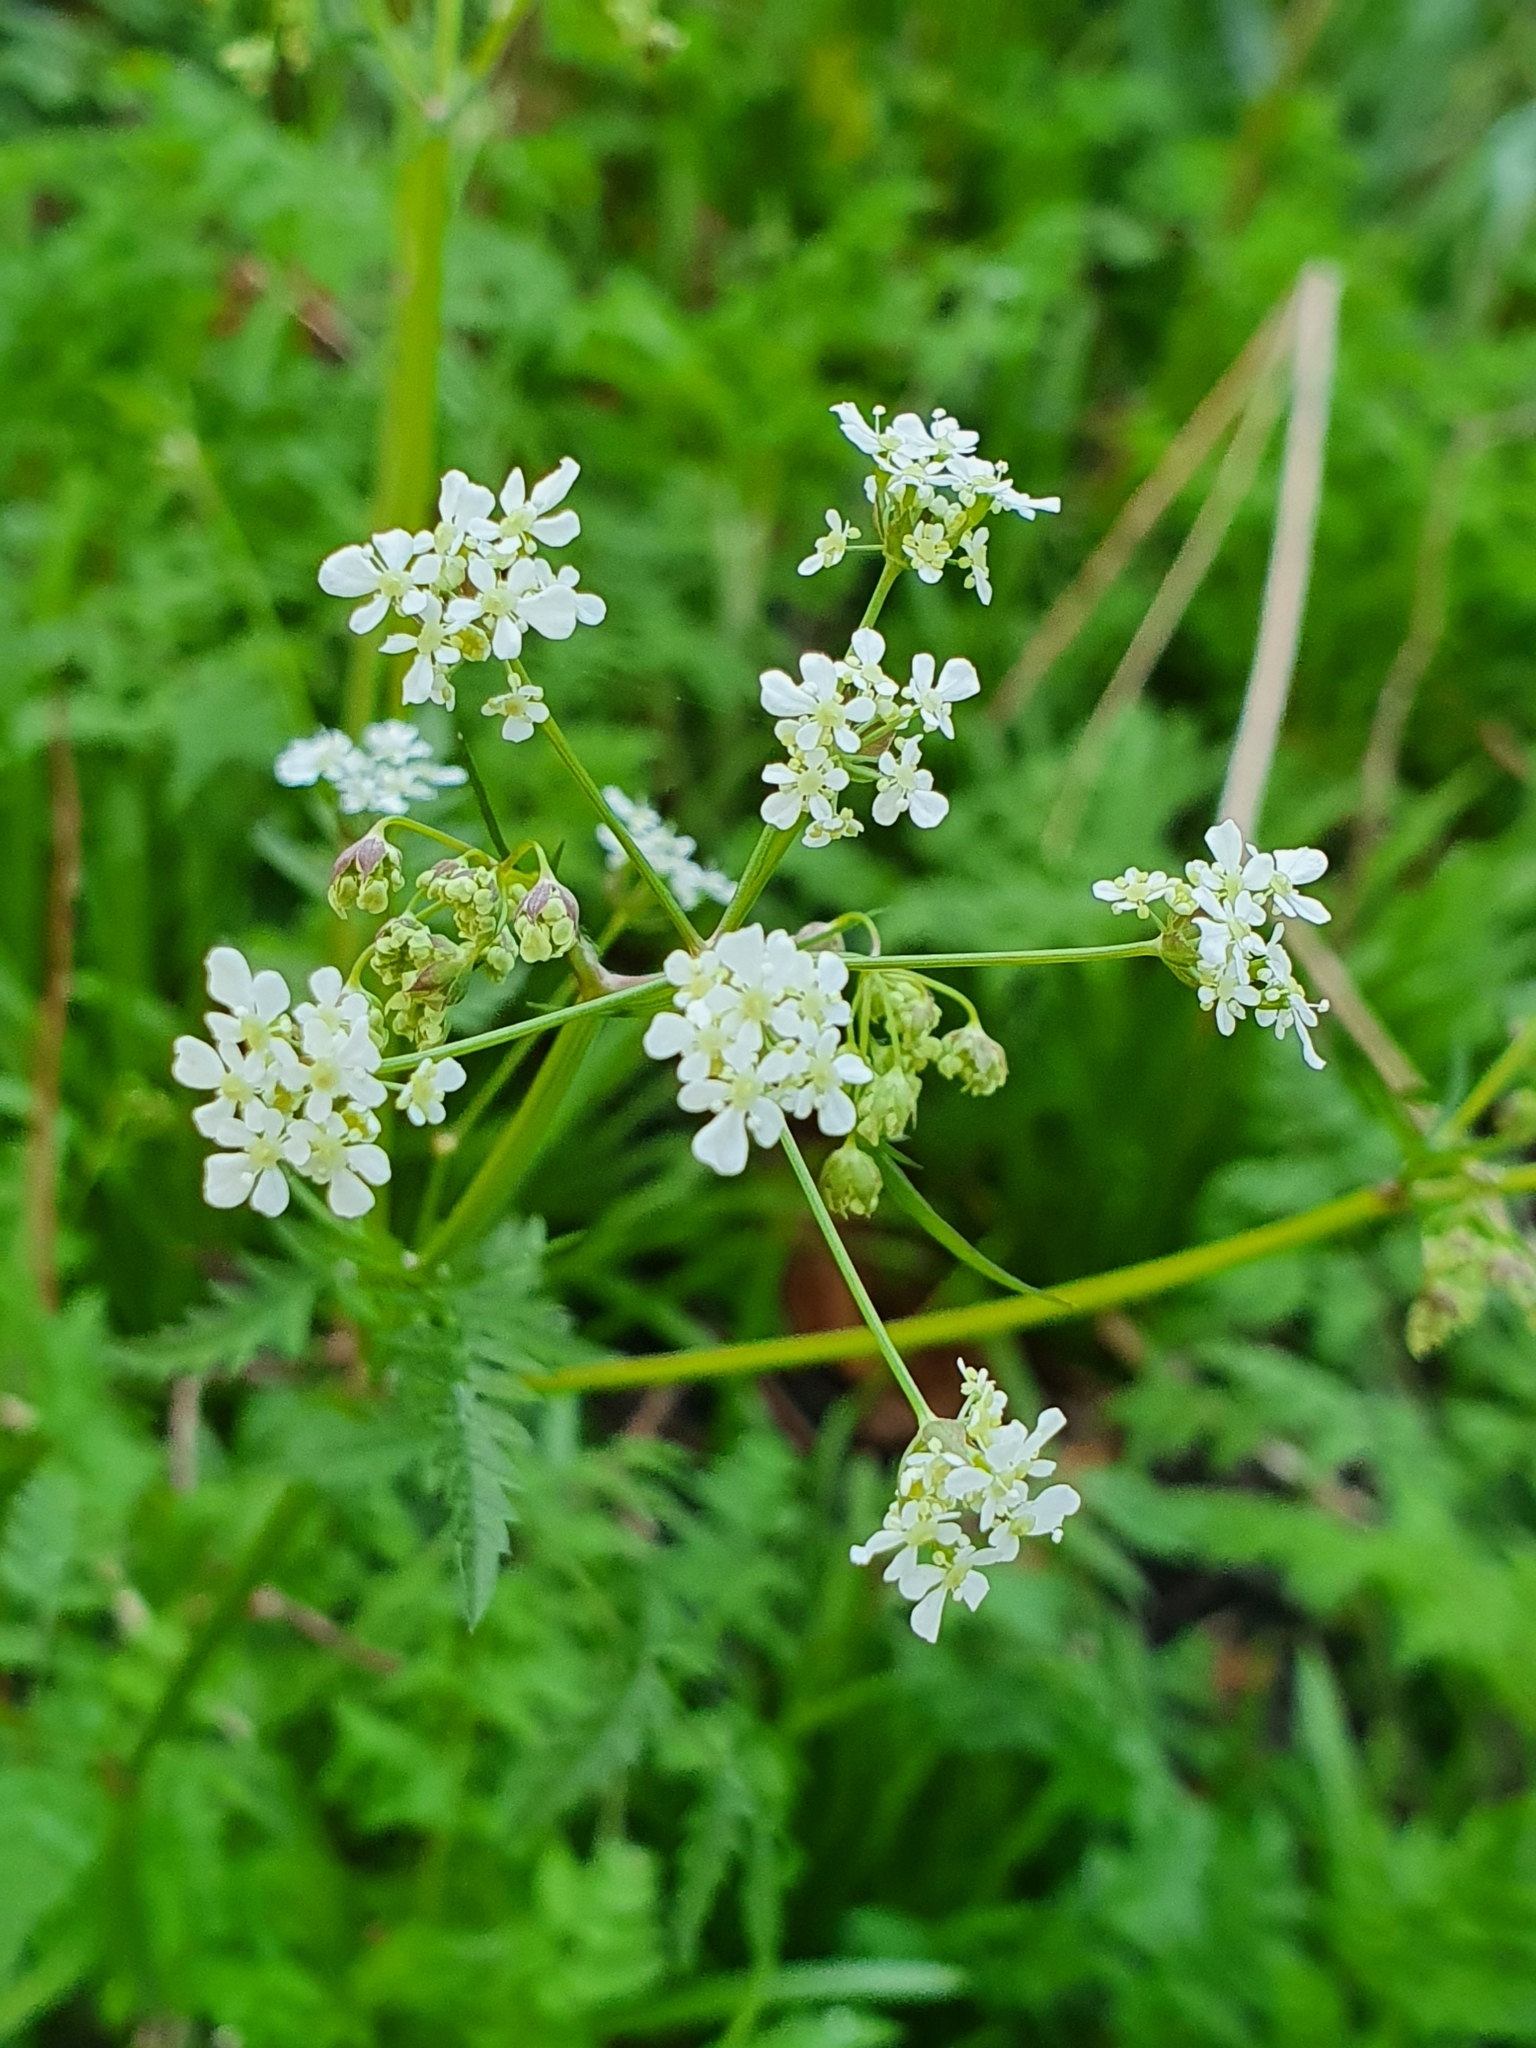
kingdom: Plantae
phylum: Tracheophyta
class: Magnoliopsida
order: Apiales
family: Apiaceae
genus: Anthriscus
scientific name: Anthriscus sylvestris
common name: Cow parsley
